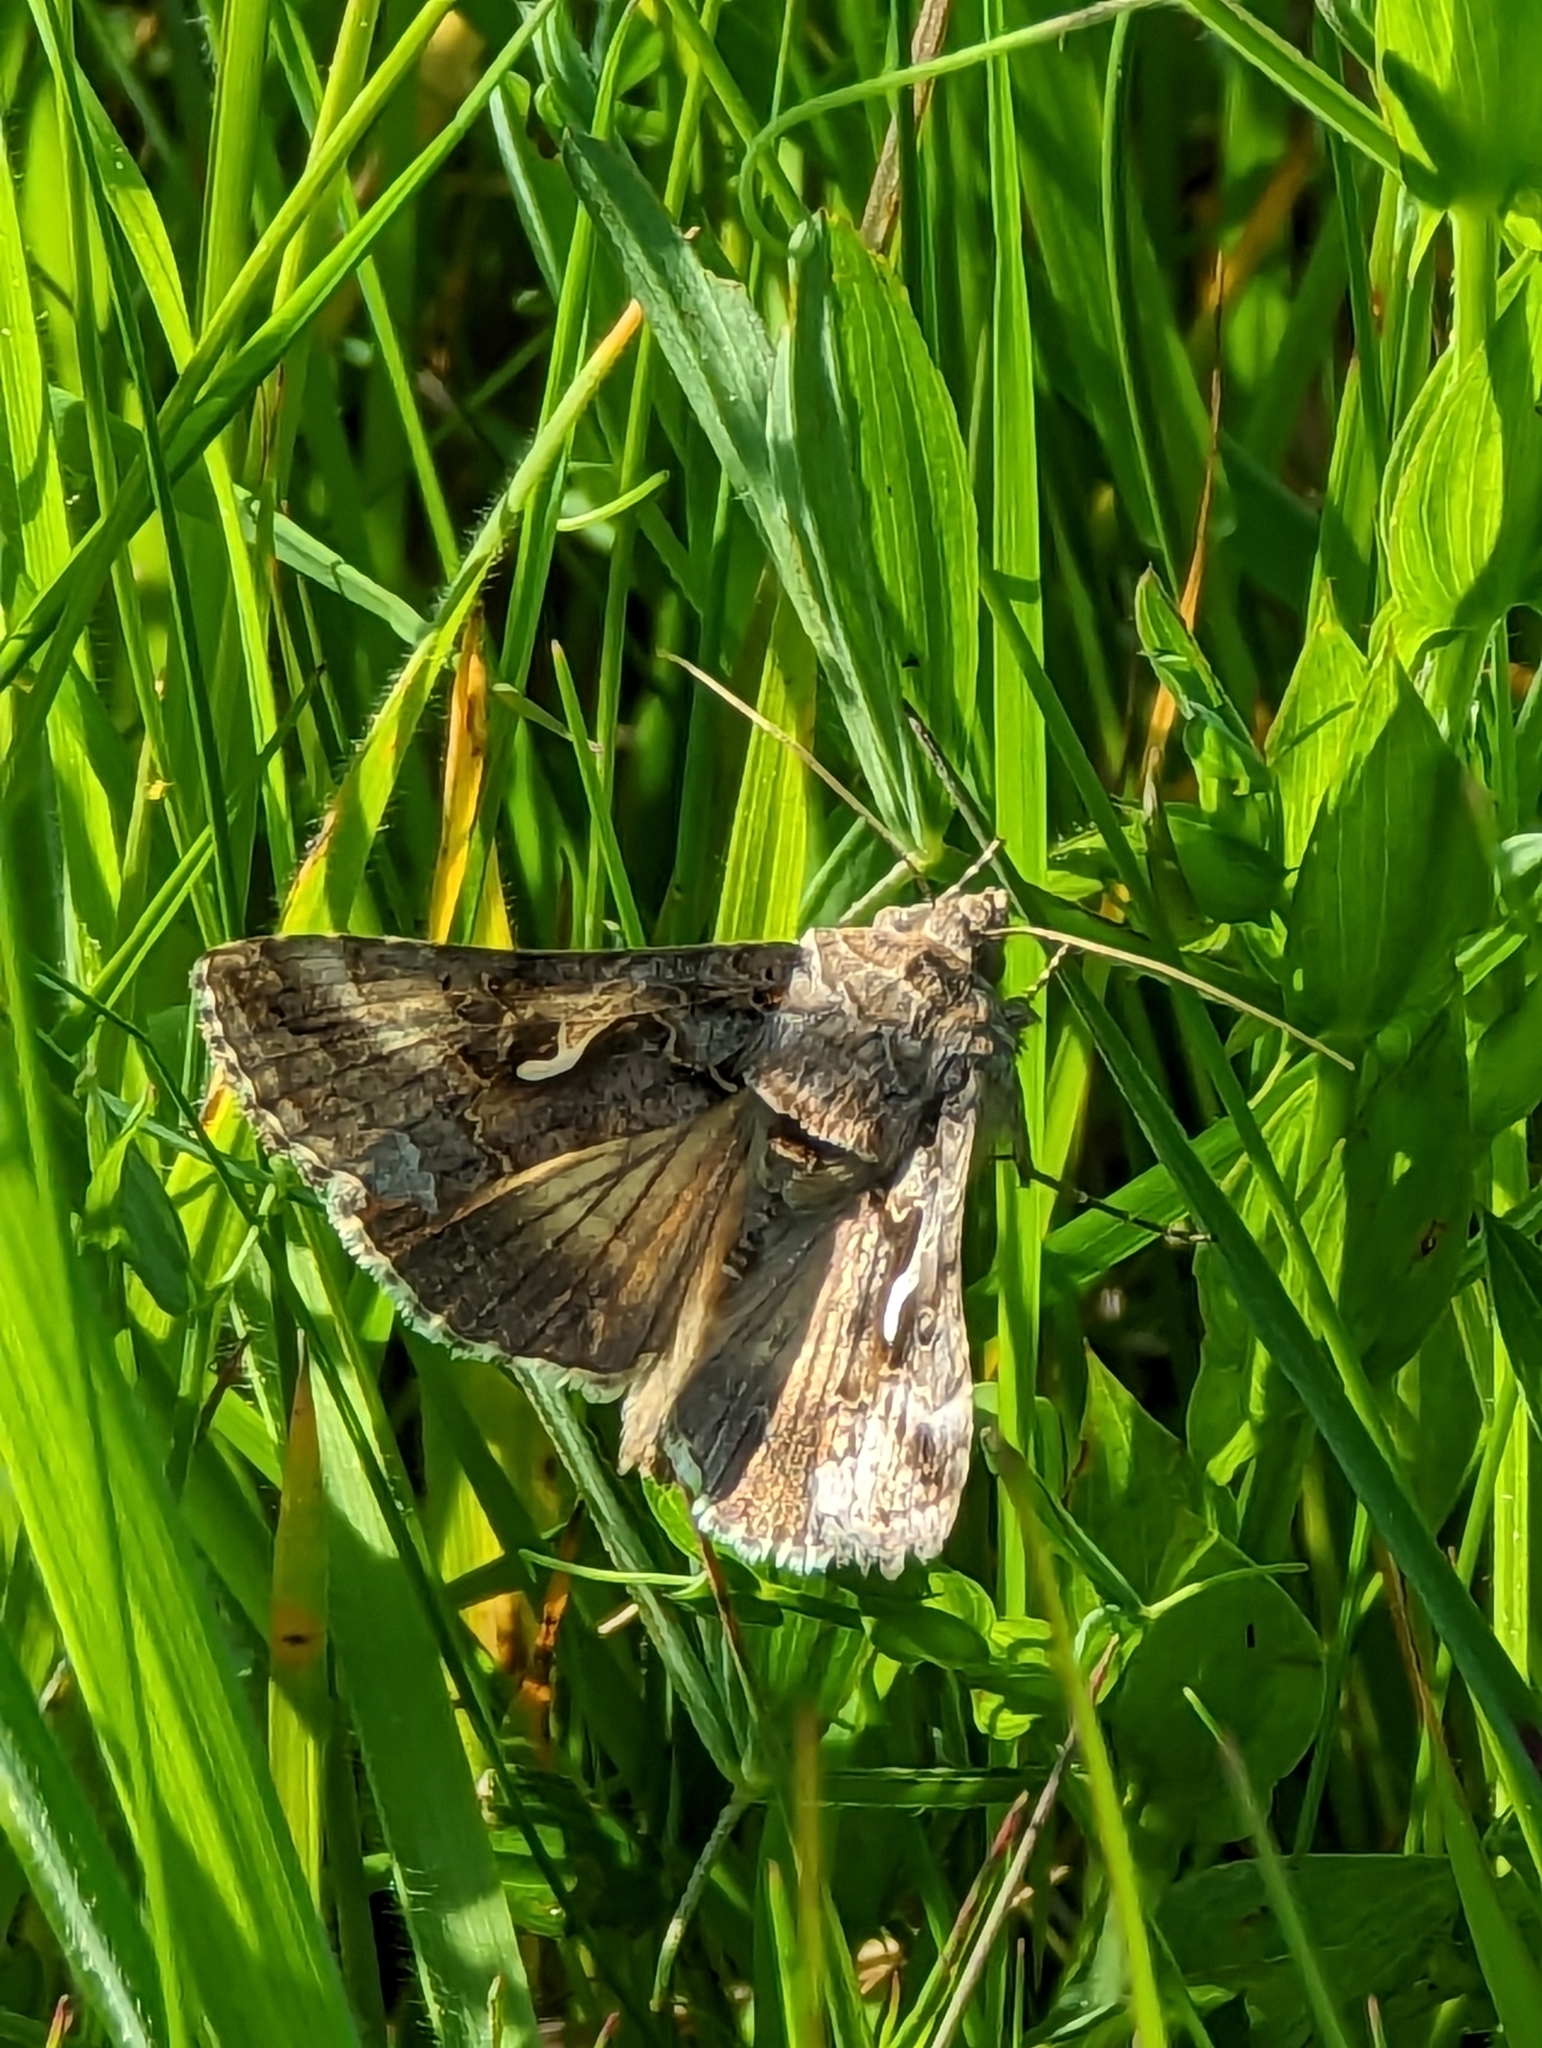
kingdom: Animalia
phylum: Arthropoda
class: Insecta
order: Lepidoptera
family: Noctuidae
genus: Autographa
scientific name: Autographa gamma
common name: Silver y
